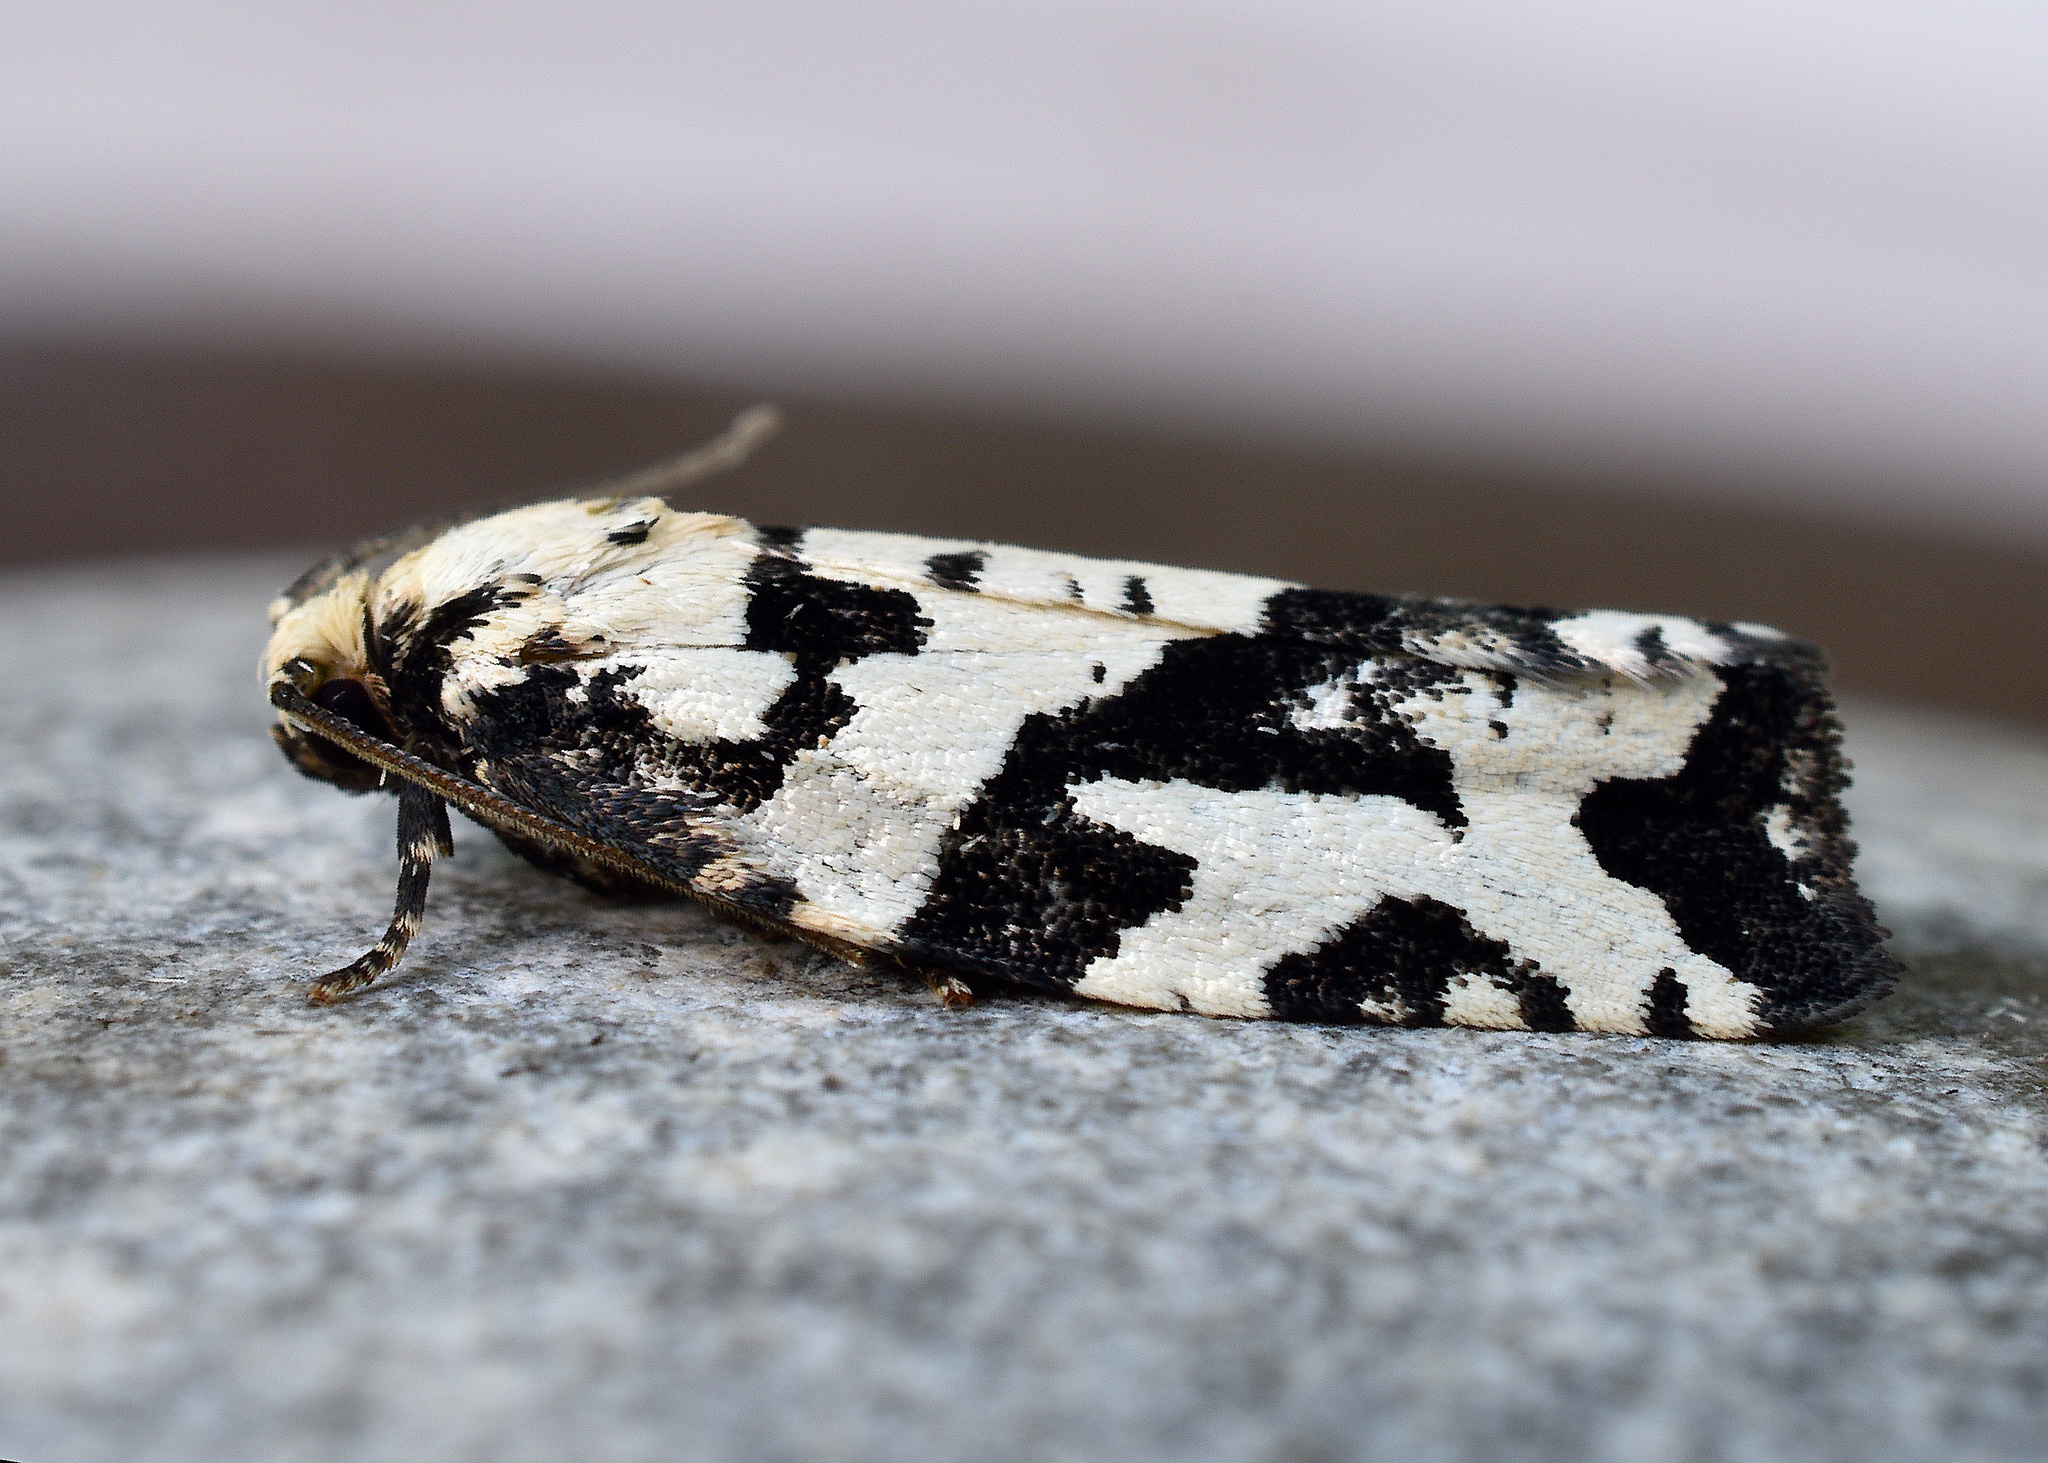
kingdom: Animalia
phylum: Arthropoda
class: Insecta
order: Lepidoptera
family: Tortricidae
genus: Archips
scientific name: Archips dissitana
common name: Boldly-marked archips moth
